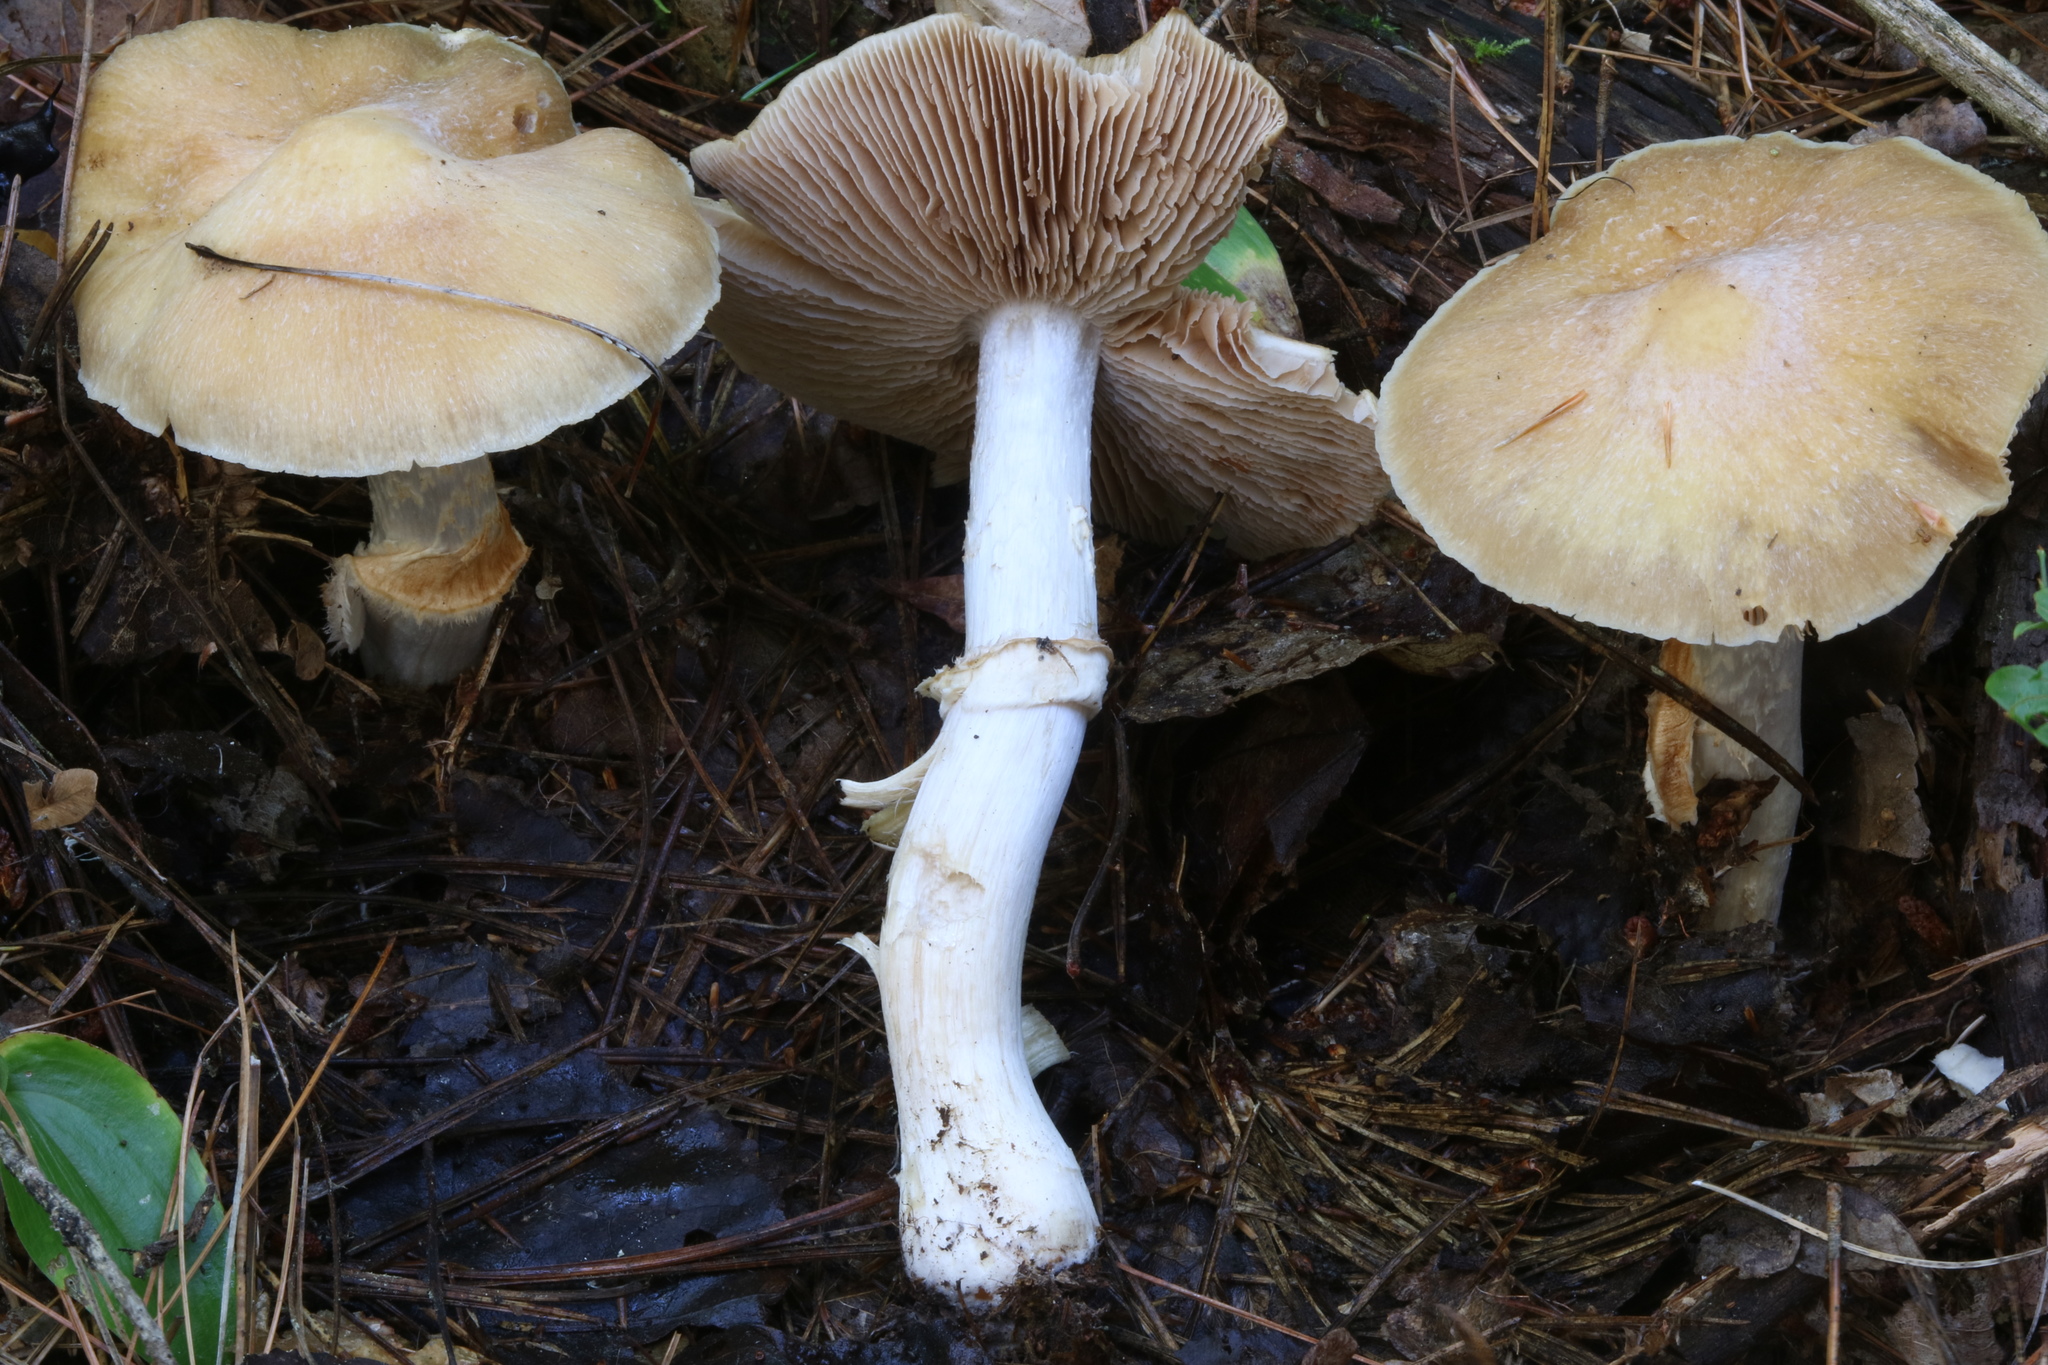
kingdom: Fungi
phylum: Basidiomycota
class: Agaricomycetes
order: Agaricales
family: Cortinariaceae
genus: Cortinarius
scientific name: Cortinarius caperatus
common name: The gypsy
